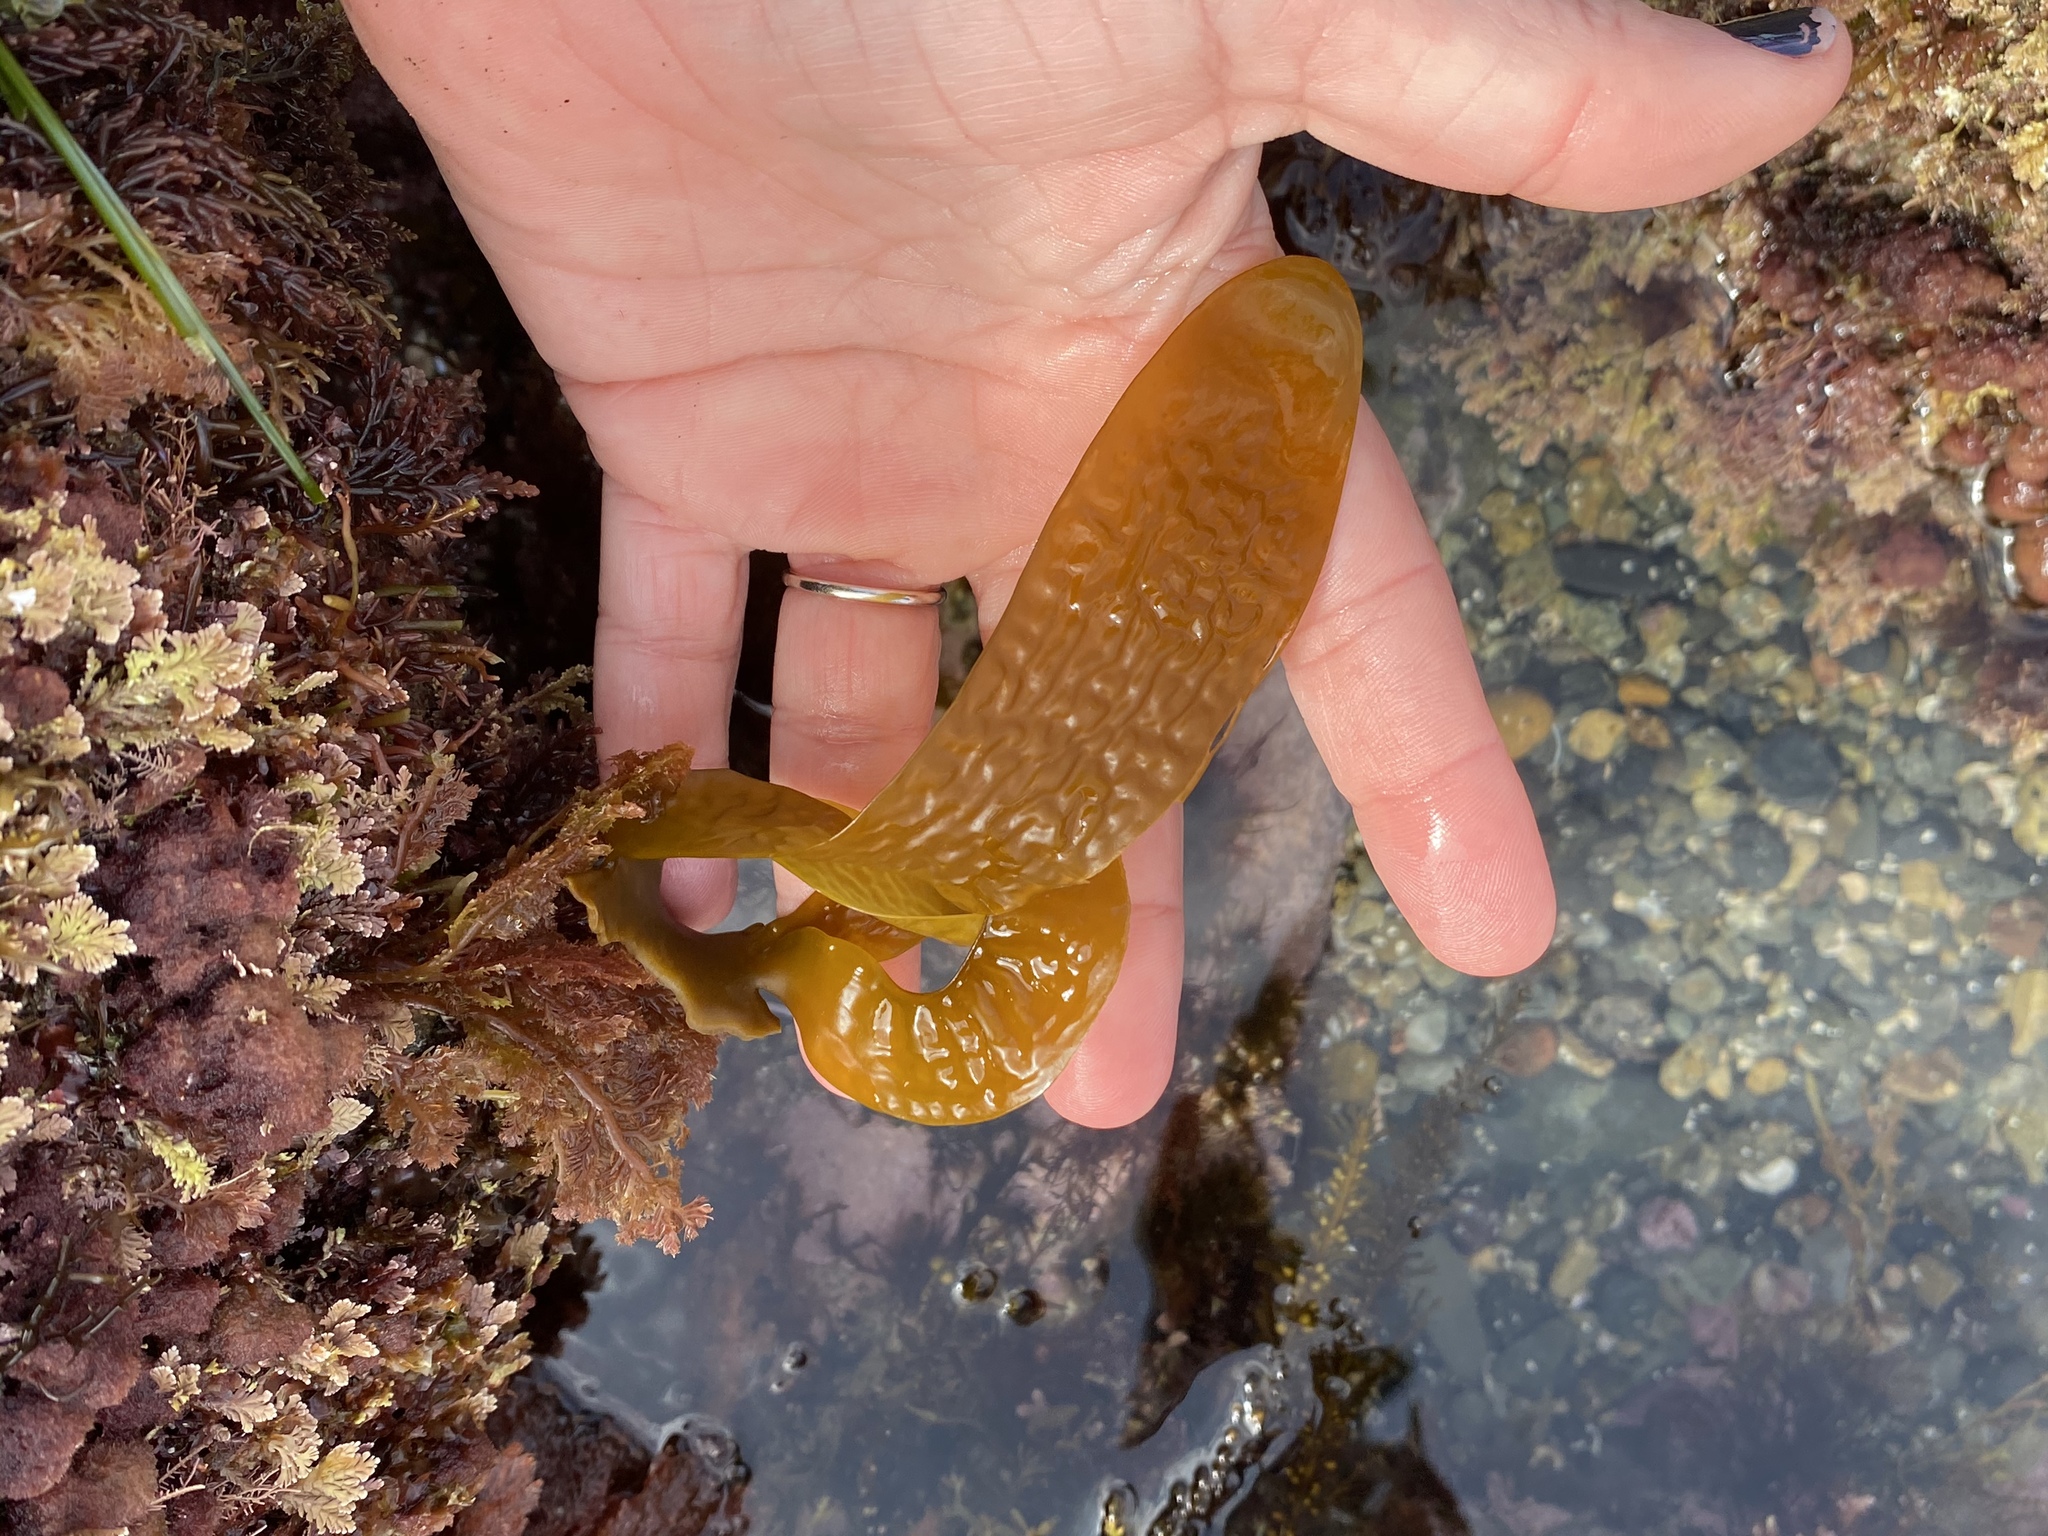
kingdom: Chromista
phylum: Ochrophyta
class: Phaeophyceae
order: Laminariales
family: Lessoniaceae
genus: Eisenia
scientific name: Eisenia arborea
